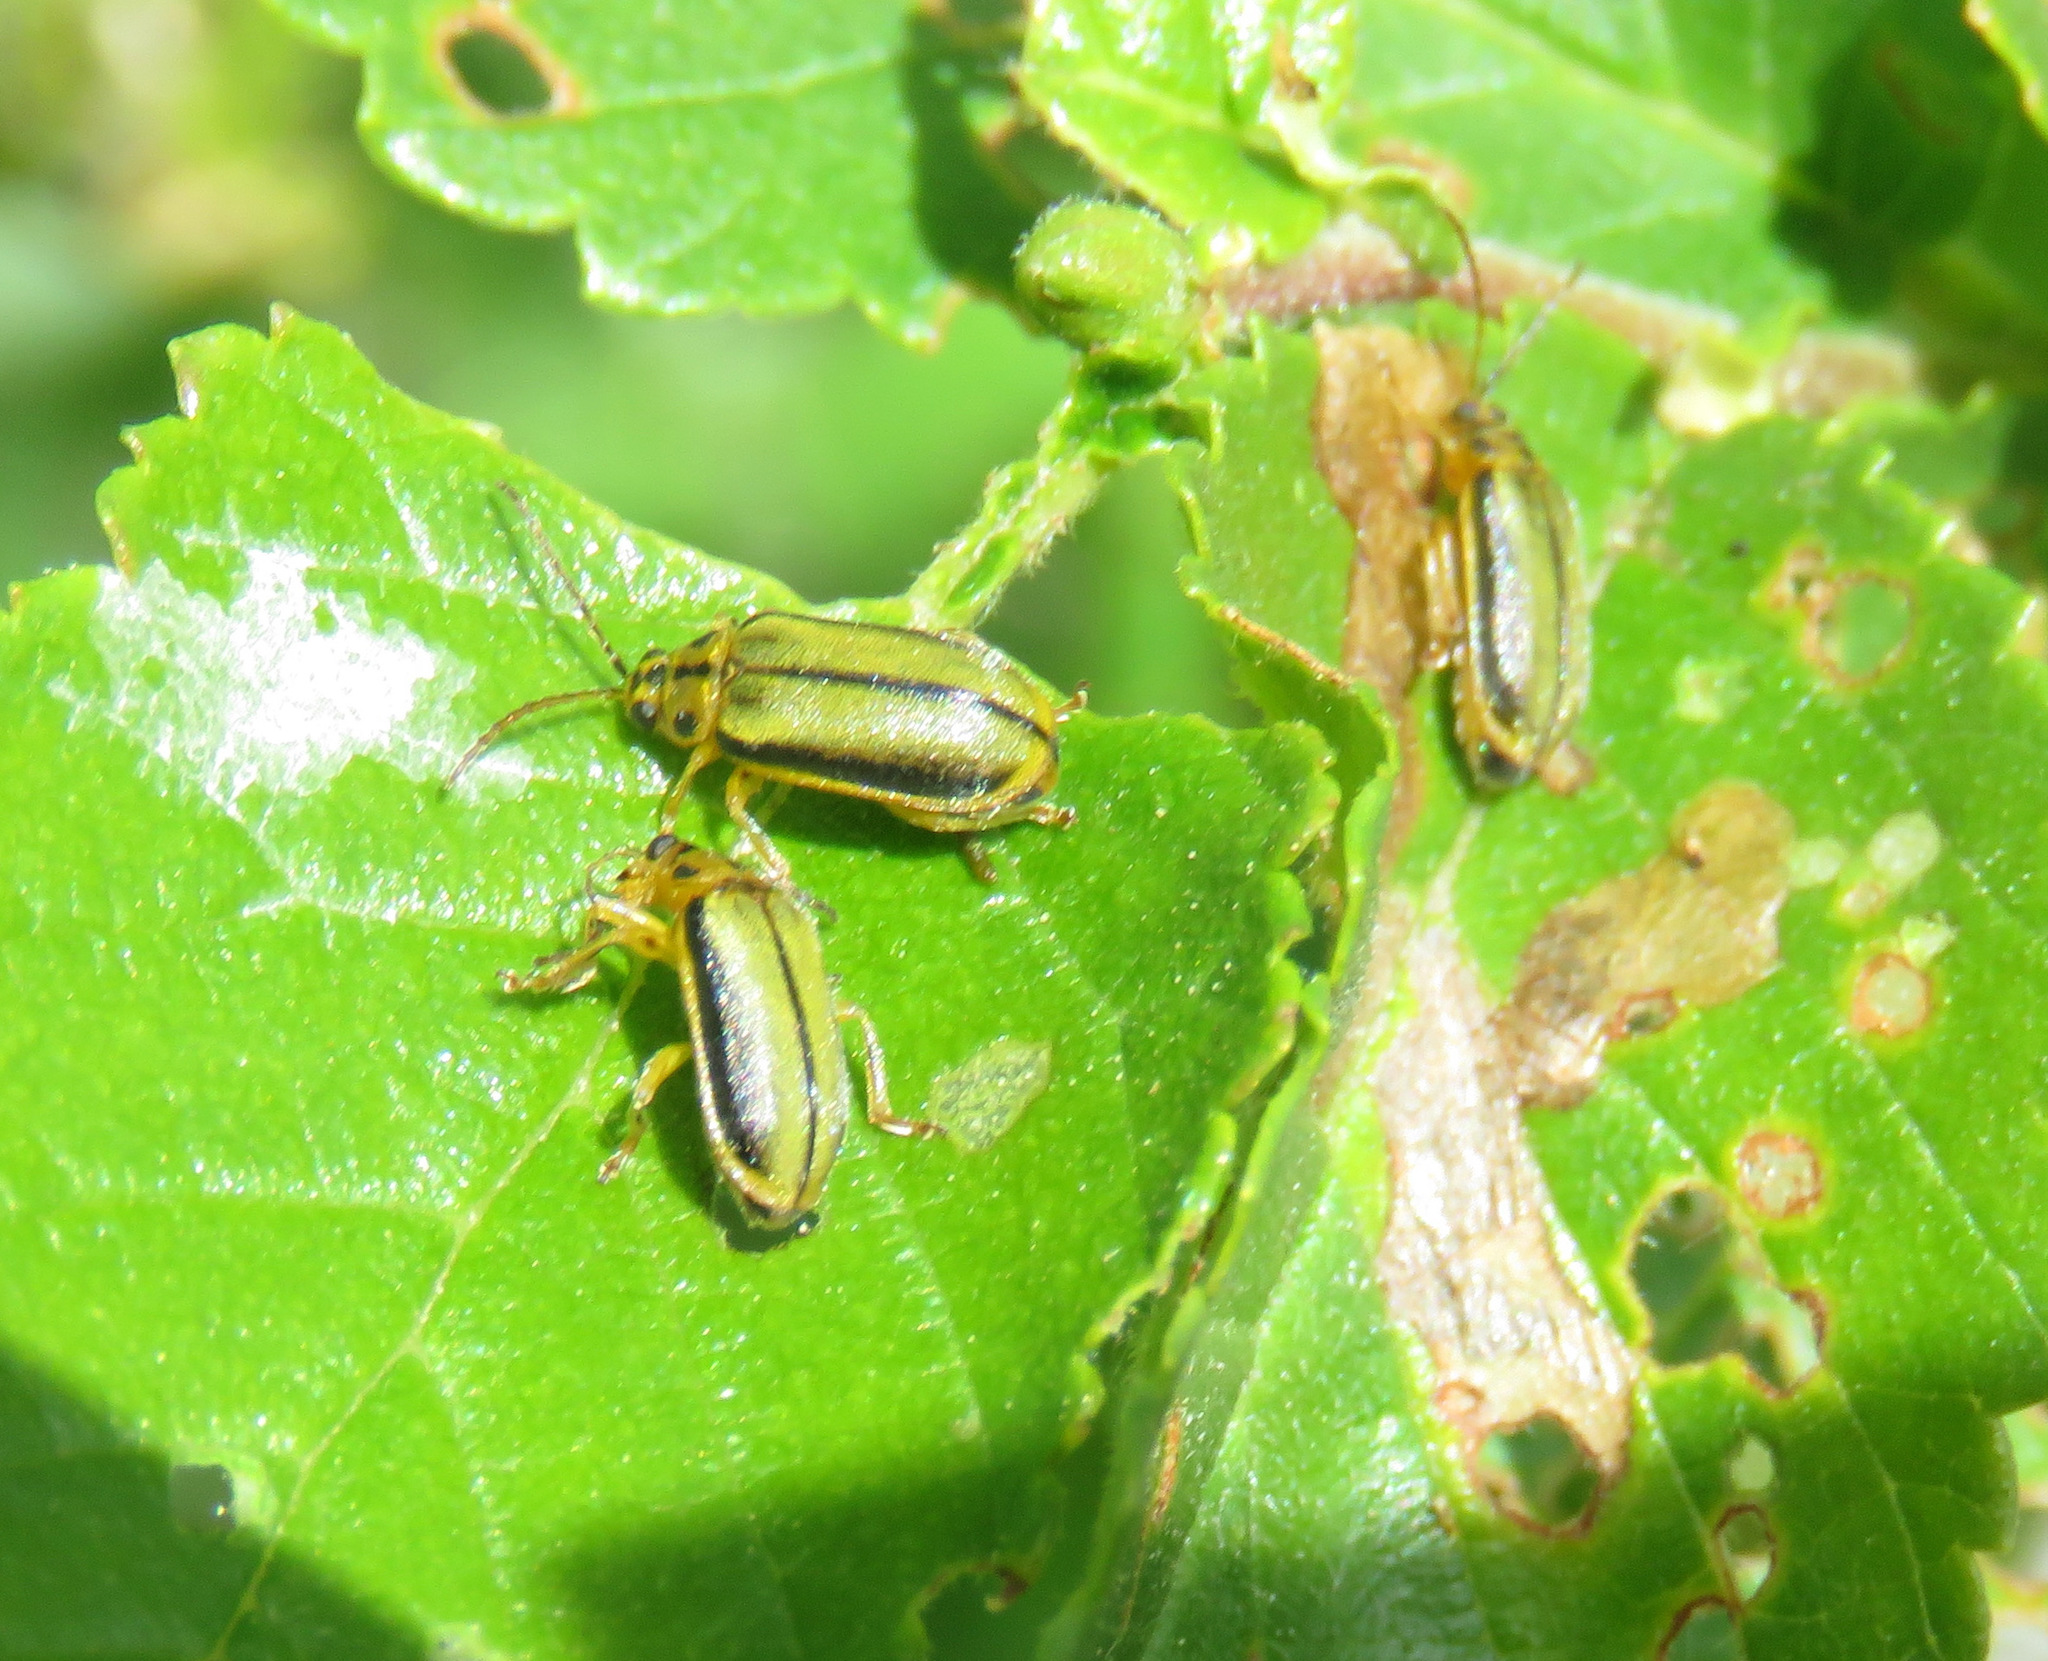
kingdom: Animalia
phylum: Arthropoda
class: Insecta
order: Coleoptera
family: Chrysomelidae
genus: Xanthogaleruca
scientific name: Xanthogaleruca luteola
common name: Elm leaf beetle
